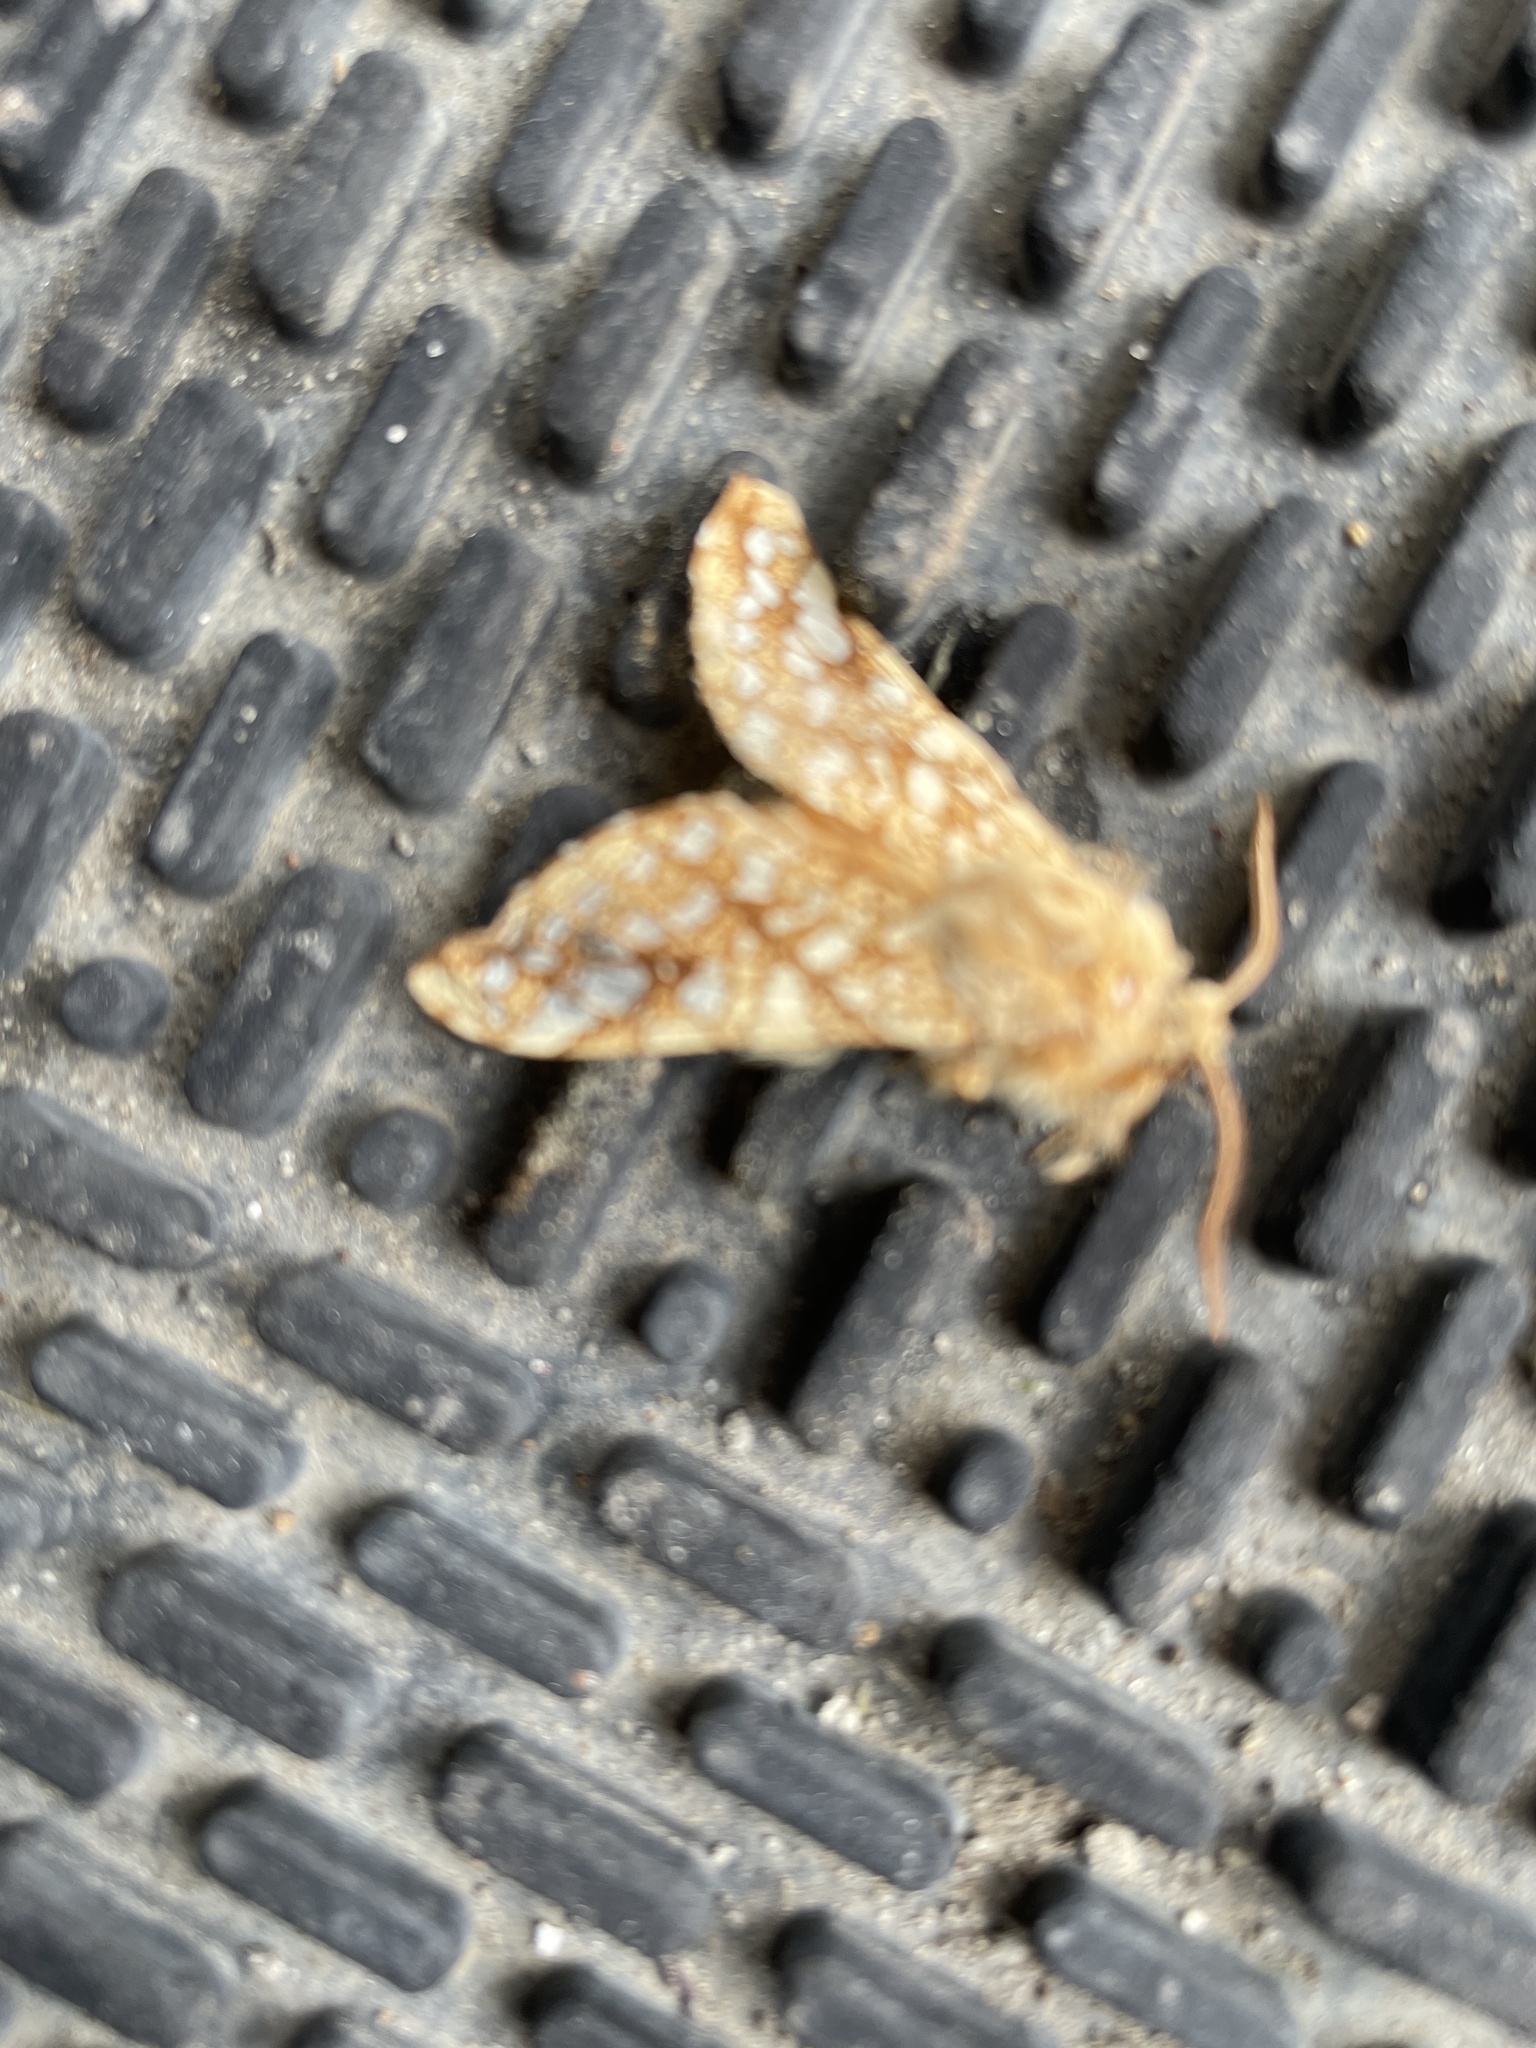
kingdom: Animalia
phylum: Arthropoda
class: Insecta
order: Lepidoptera
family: Erebidae
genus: Lophocampa
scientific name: Lophocampa caryae
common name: Hickory tussock moth
